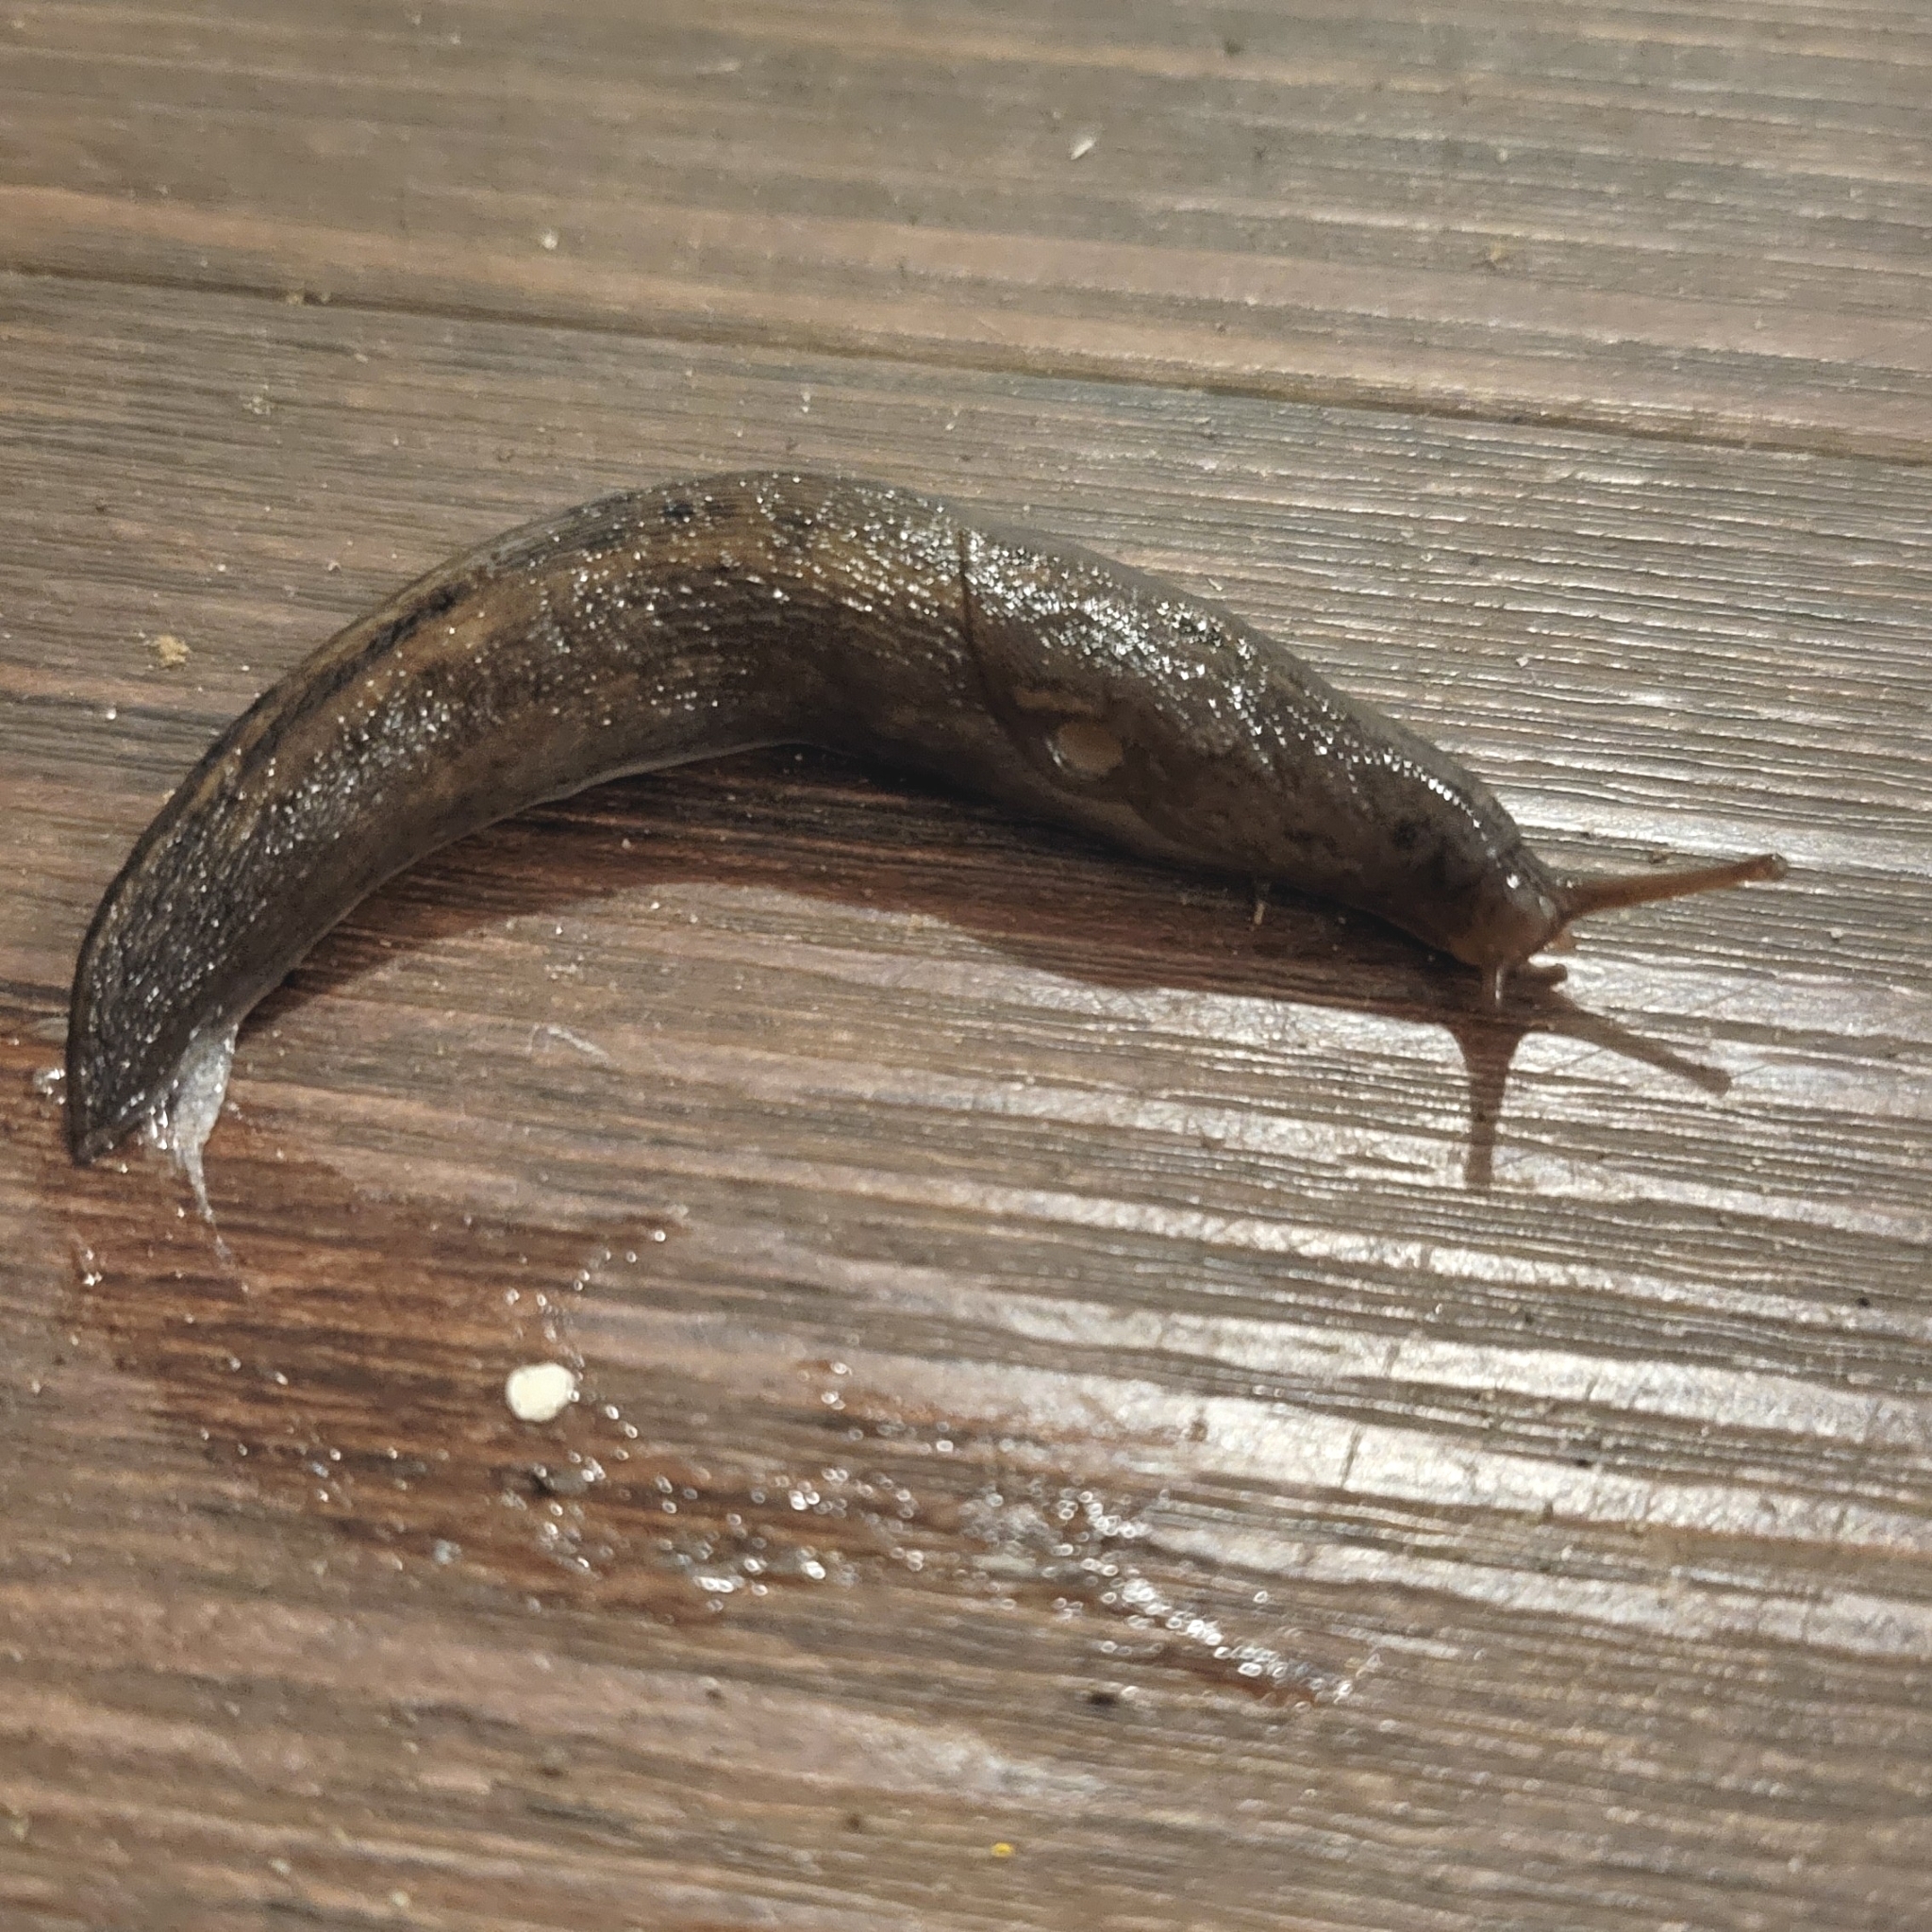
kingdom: Animalia
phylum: Mollusca
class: Gastropoda
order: Stylommatophora
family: Limacidae
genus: Limax
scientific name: Limax maximus
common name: Great grey slug
